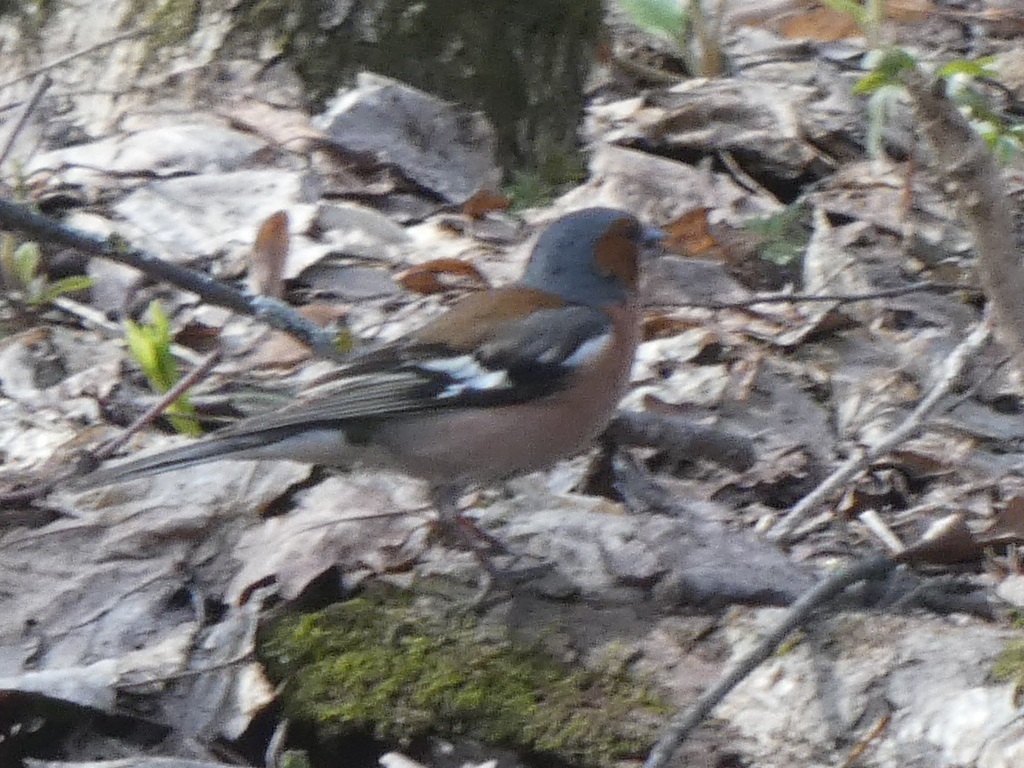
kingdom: Animalia
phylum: Chordata
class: Aves
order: Passeriformes
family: Fringillidae
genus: Fringilla
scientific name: Fringilla coelebs
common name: Common chaffinch
